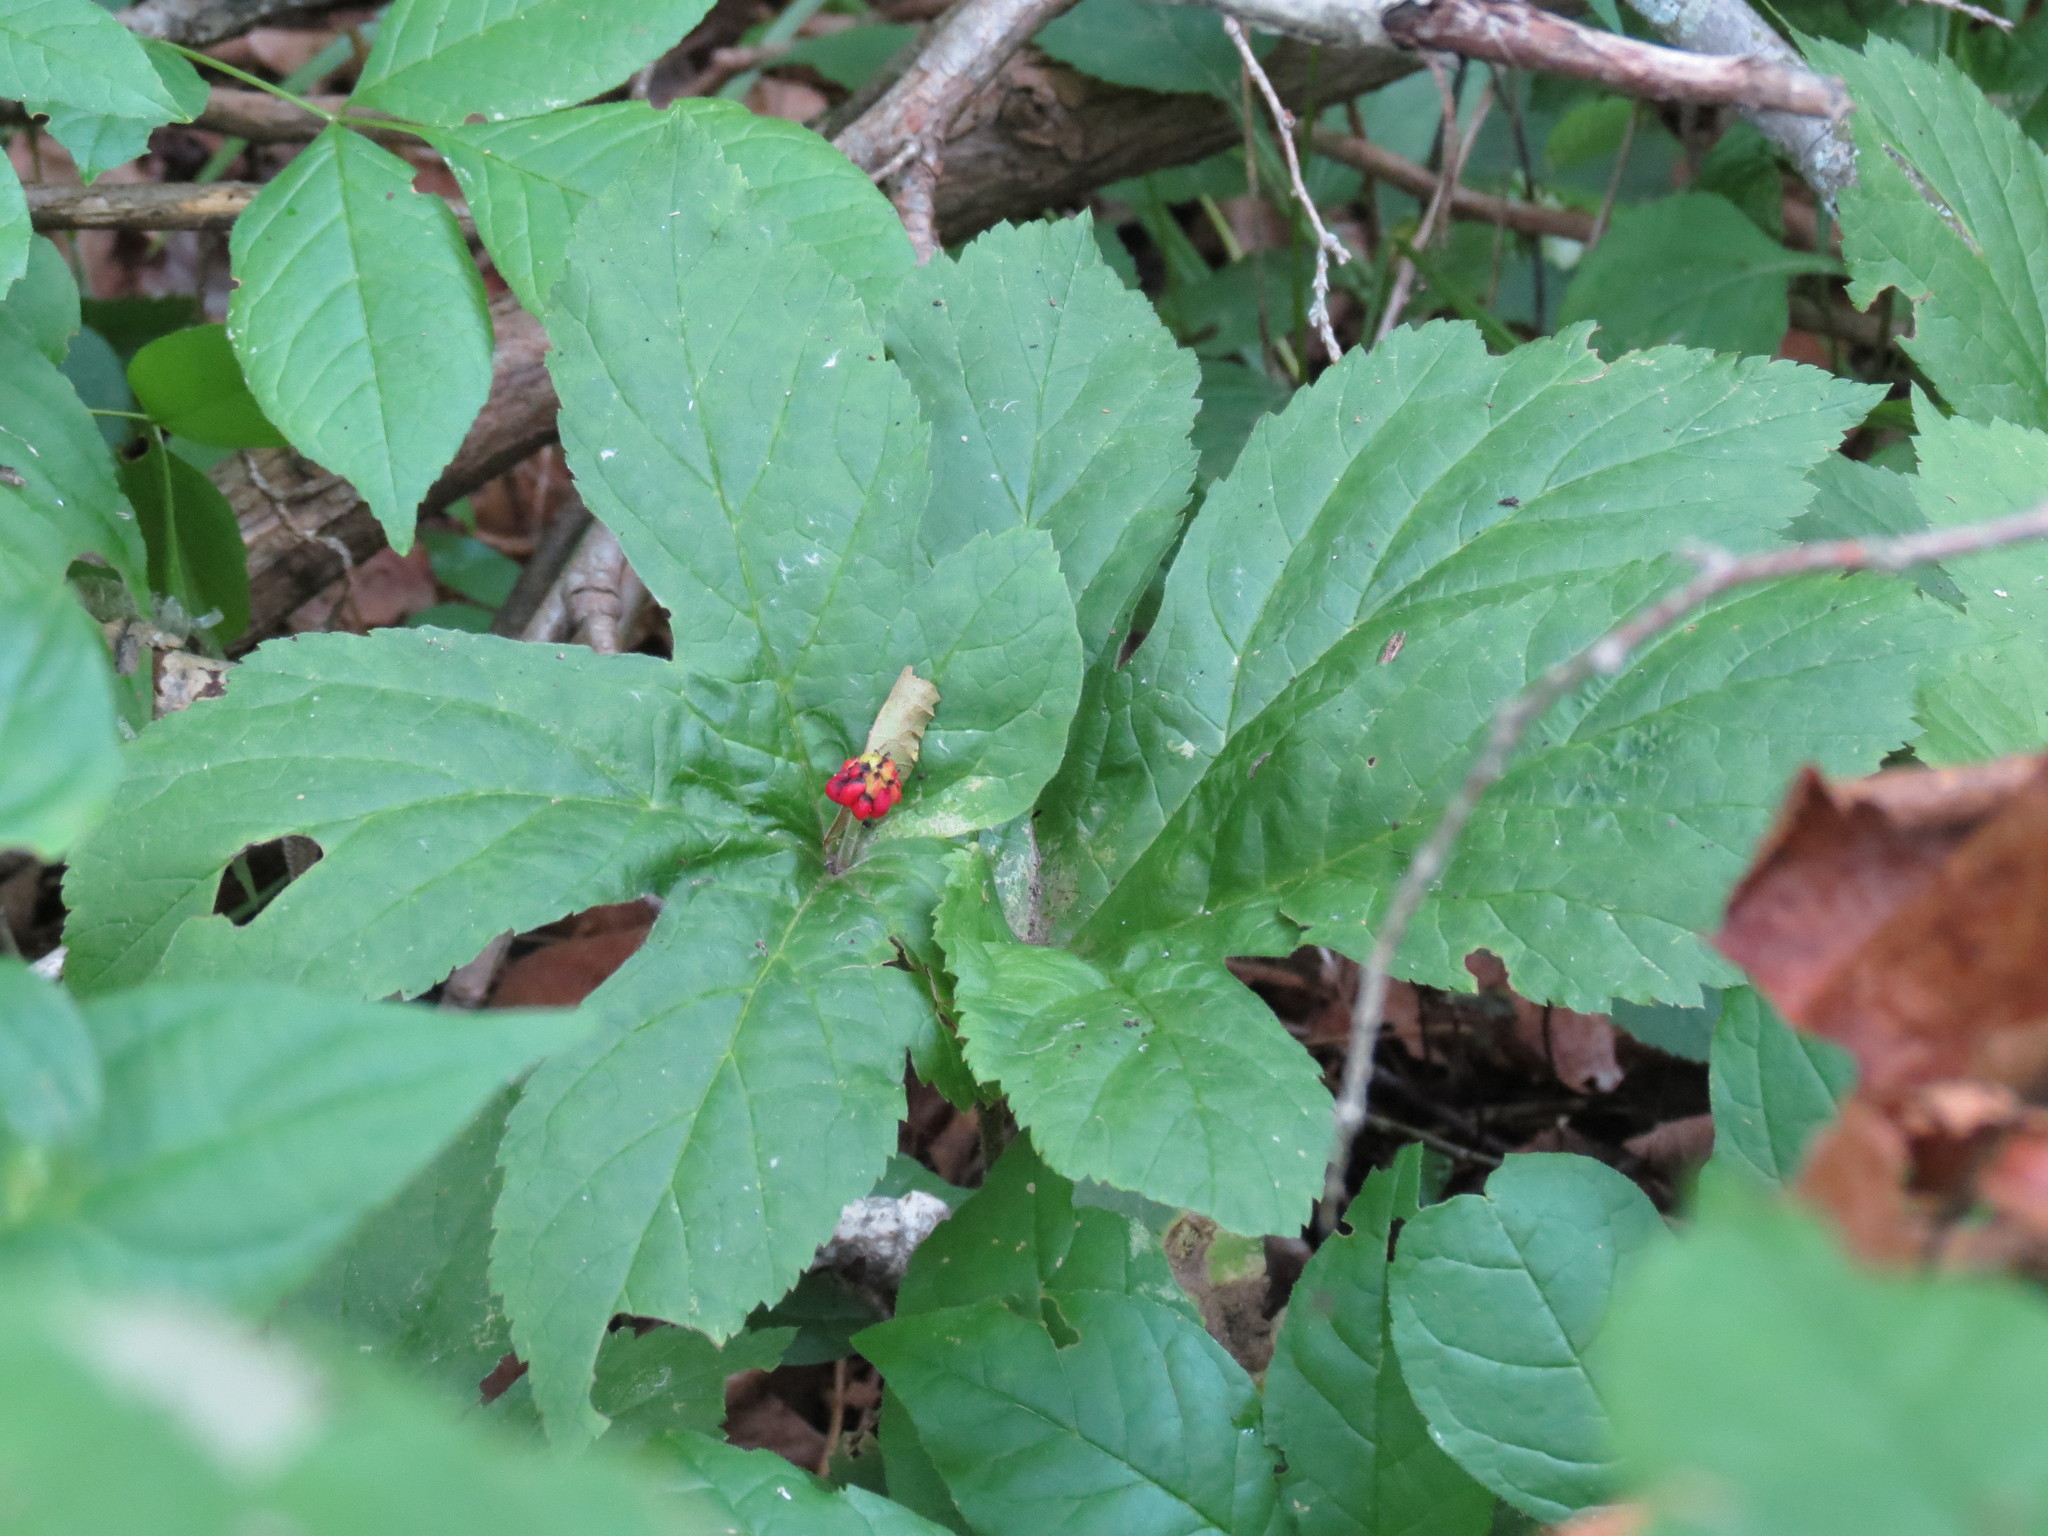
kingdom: Plantae
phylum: Tracheophyta
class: Magnoliopsida
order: Ranunculales
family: Ranunculaceae
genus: Hydrastis
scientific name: Hydrastis canadensis
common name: Goldenseal
